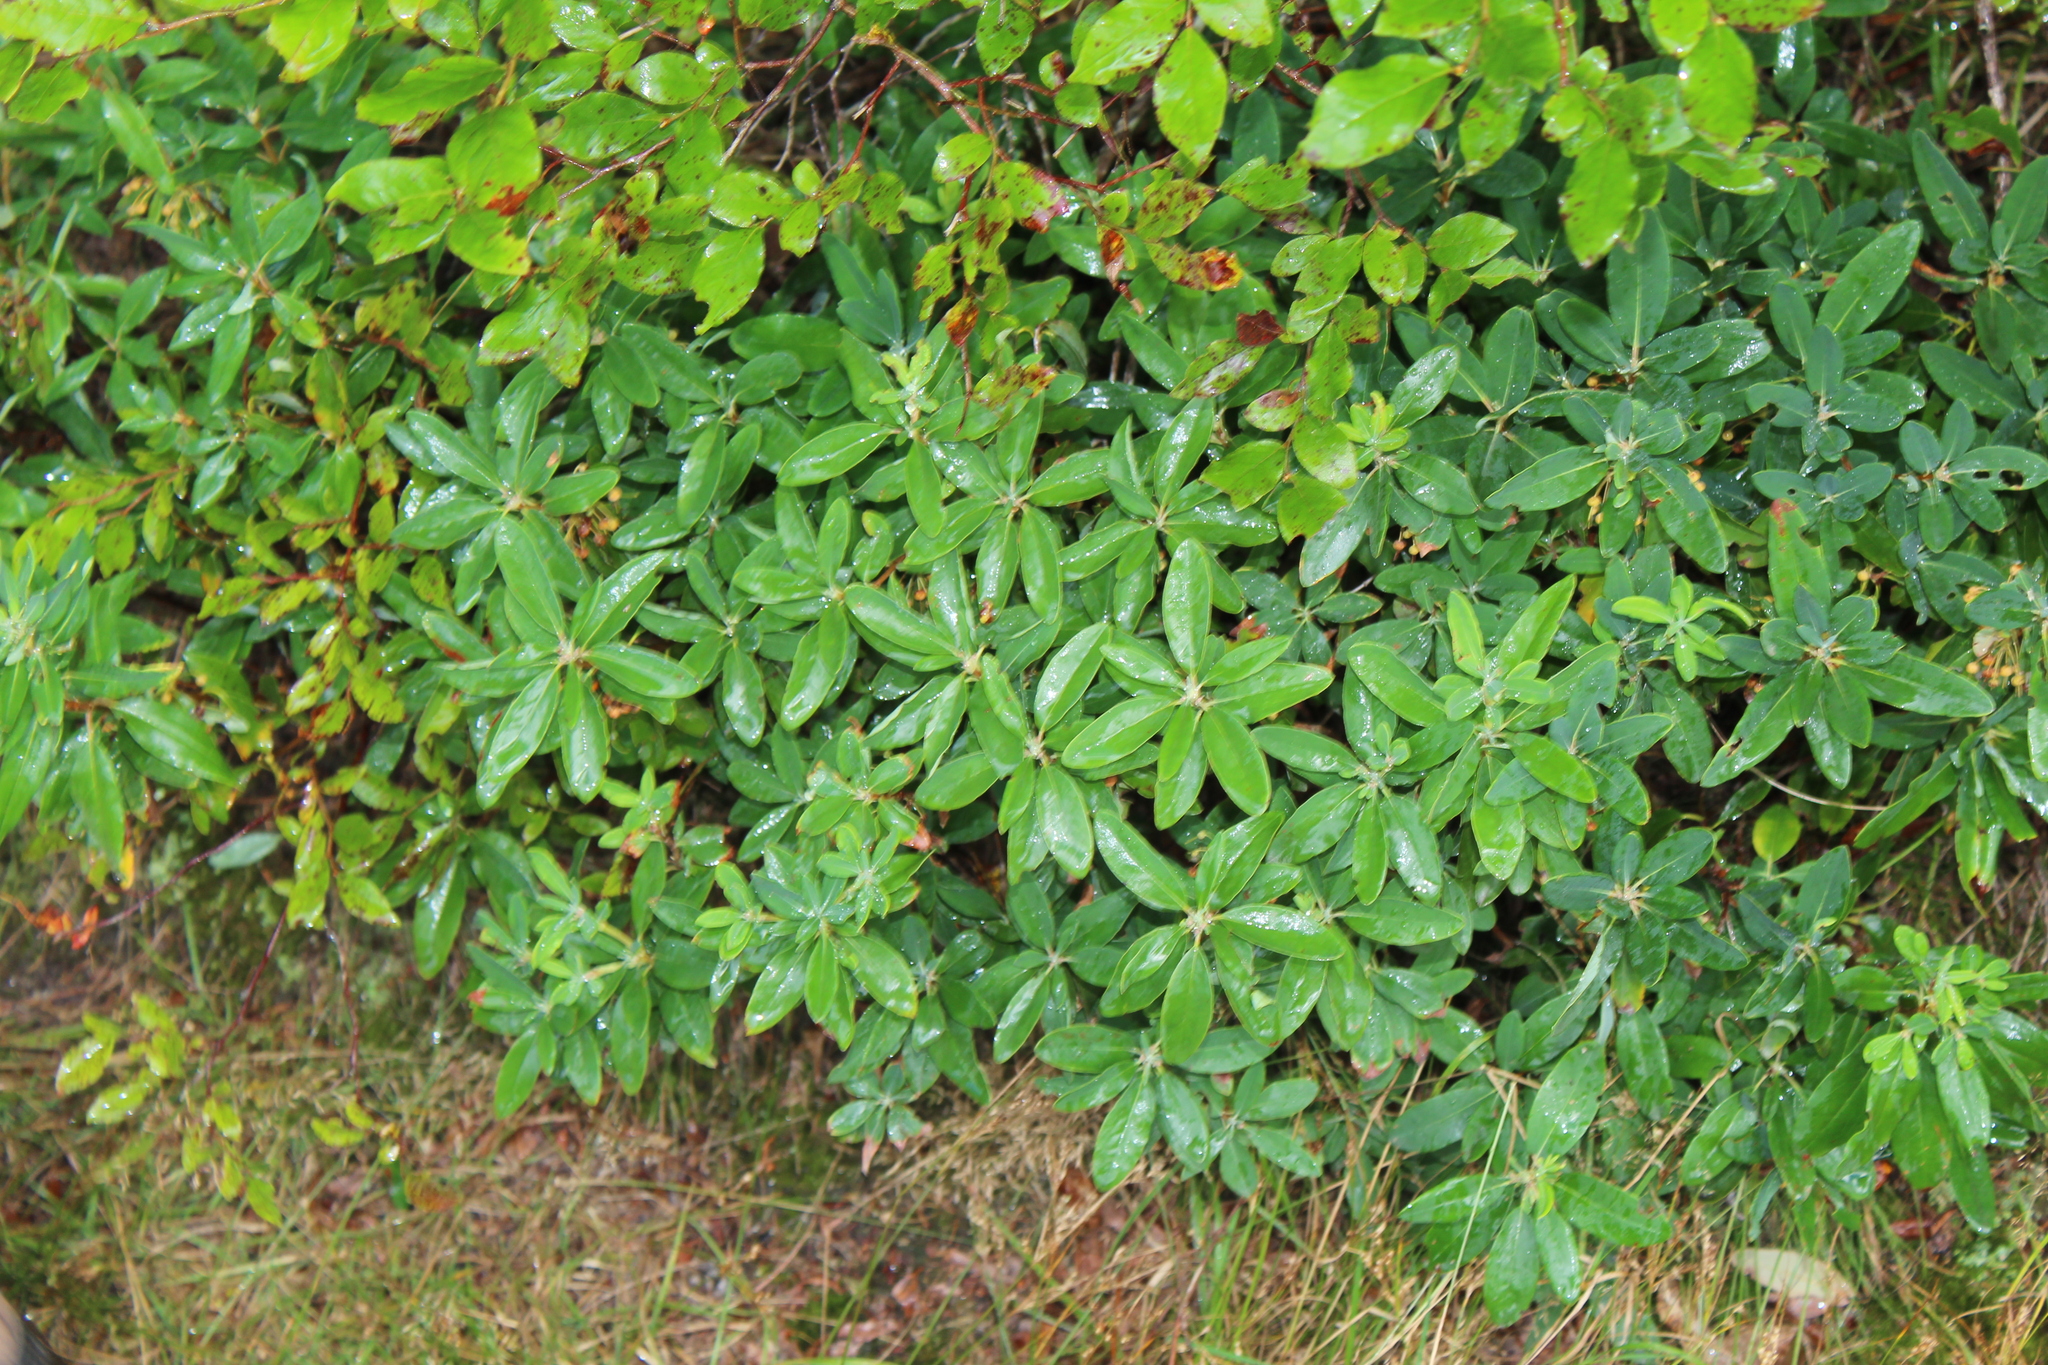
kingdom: Plantae
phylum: Tracheophyta
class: Magnoliopsida
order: Ericales
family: Ericaceae
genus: Kalmia
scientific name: Kalmia angustifolia
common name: Sheep-laurel
